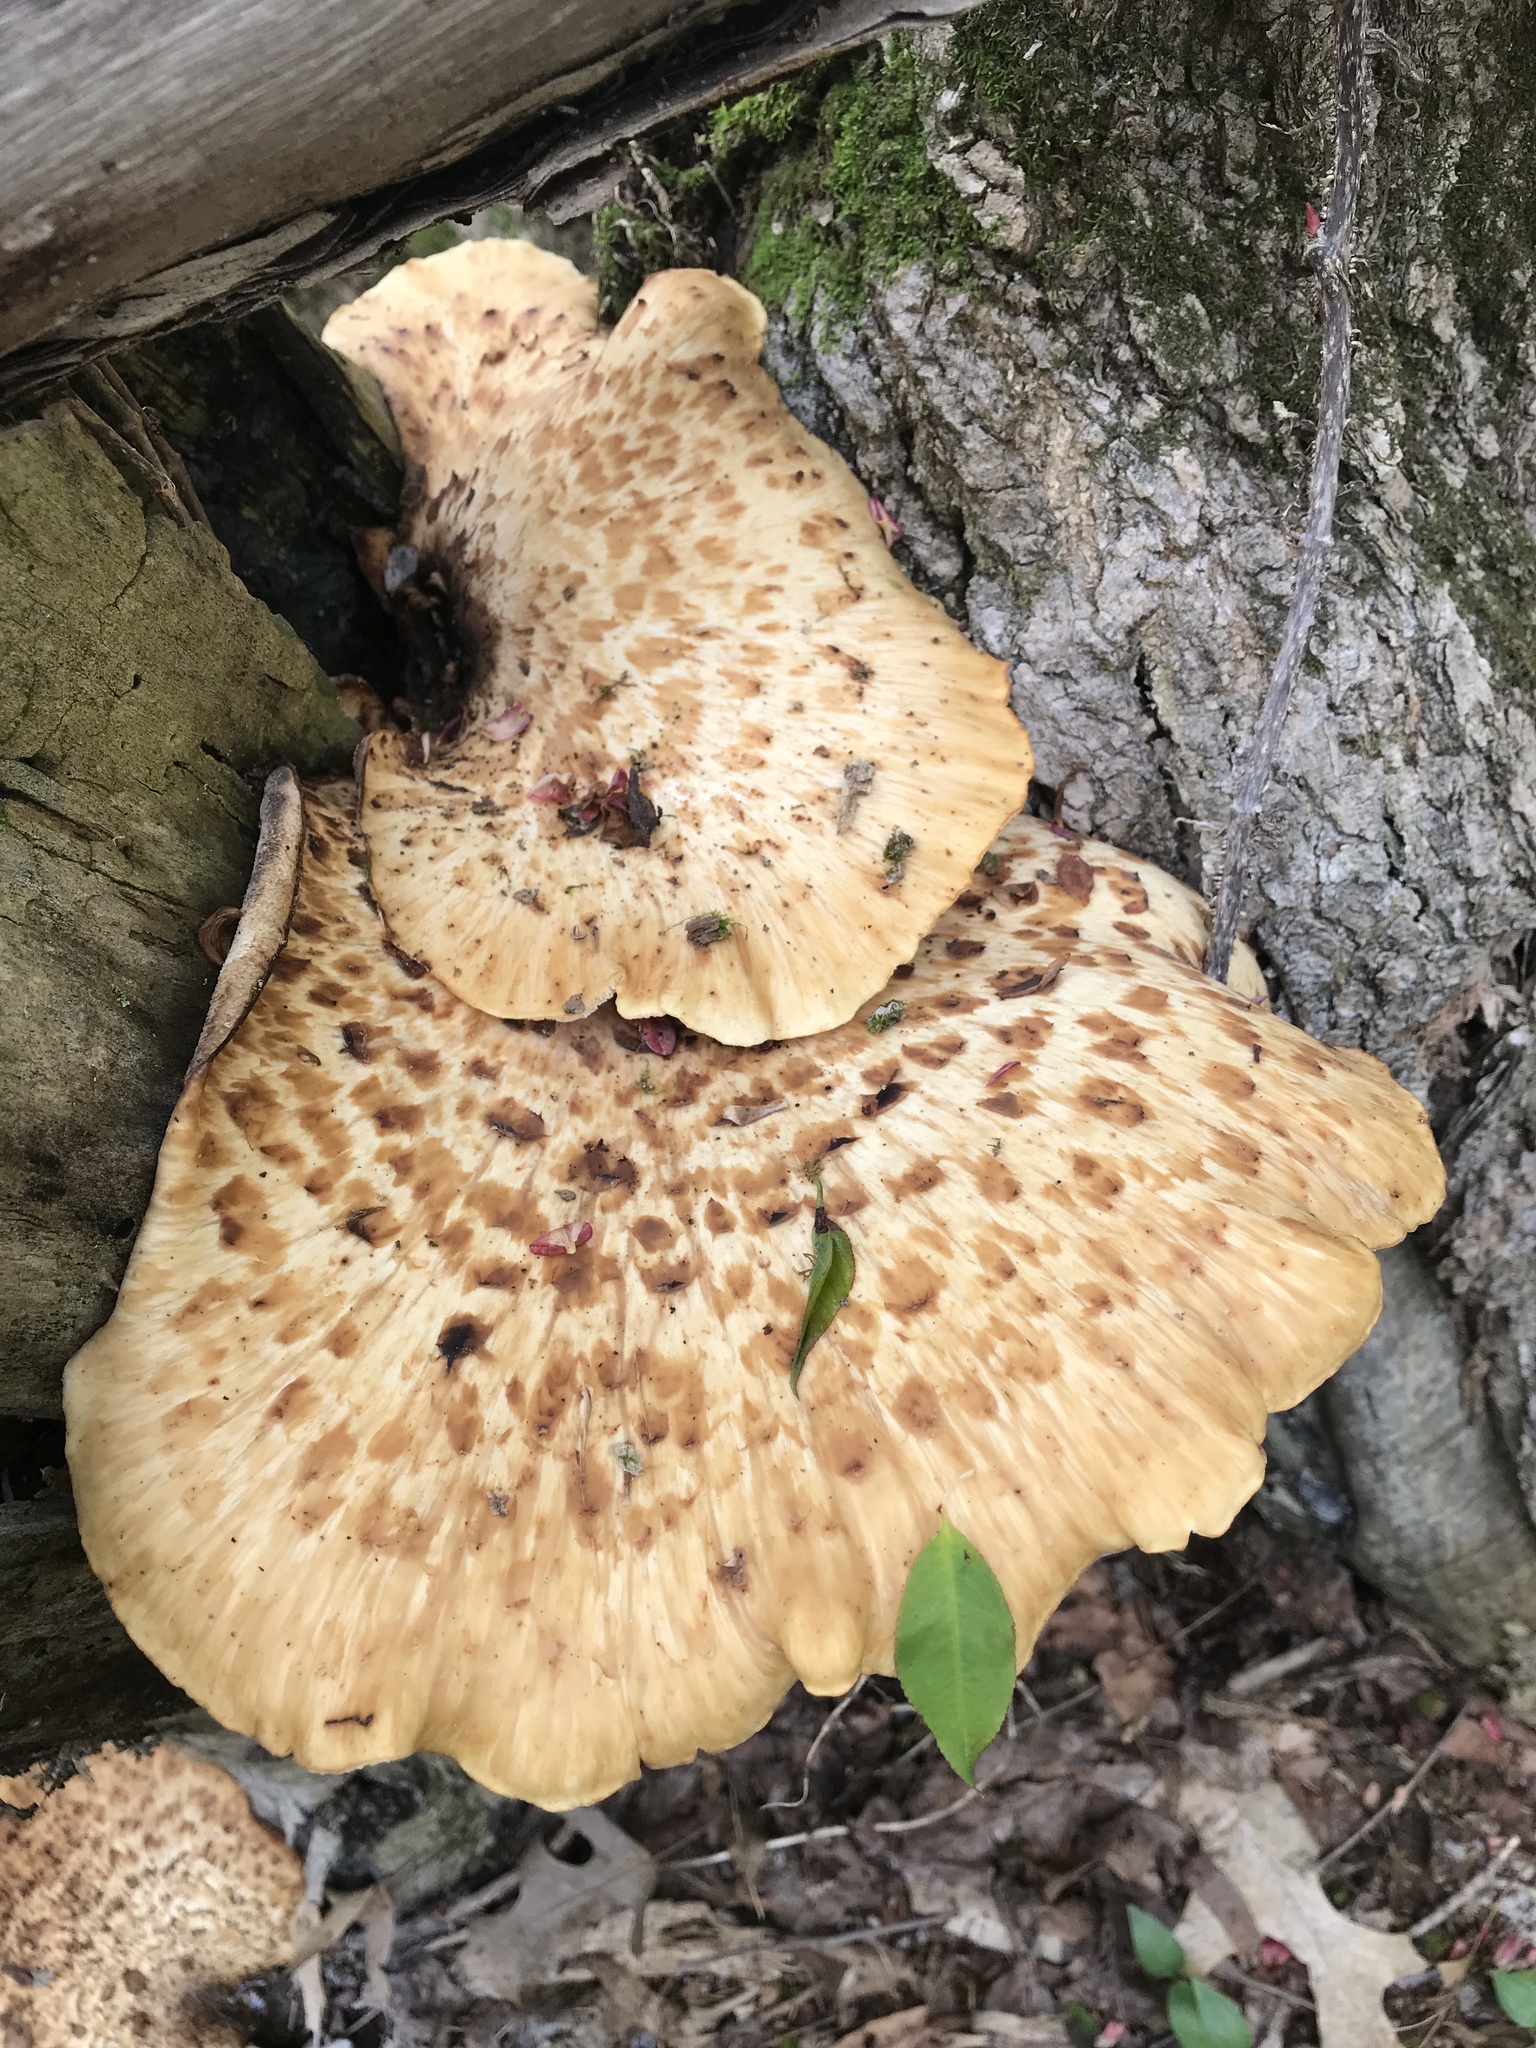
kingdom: Fungi
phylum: Basidiomycota
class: Agaricomycetes
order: Polyporales
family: Polyporaceae
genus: Cerioporus
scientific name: Cerioporus squamosus
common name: Dryad's saddle
